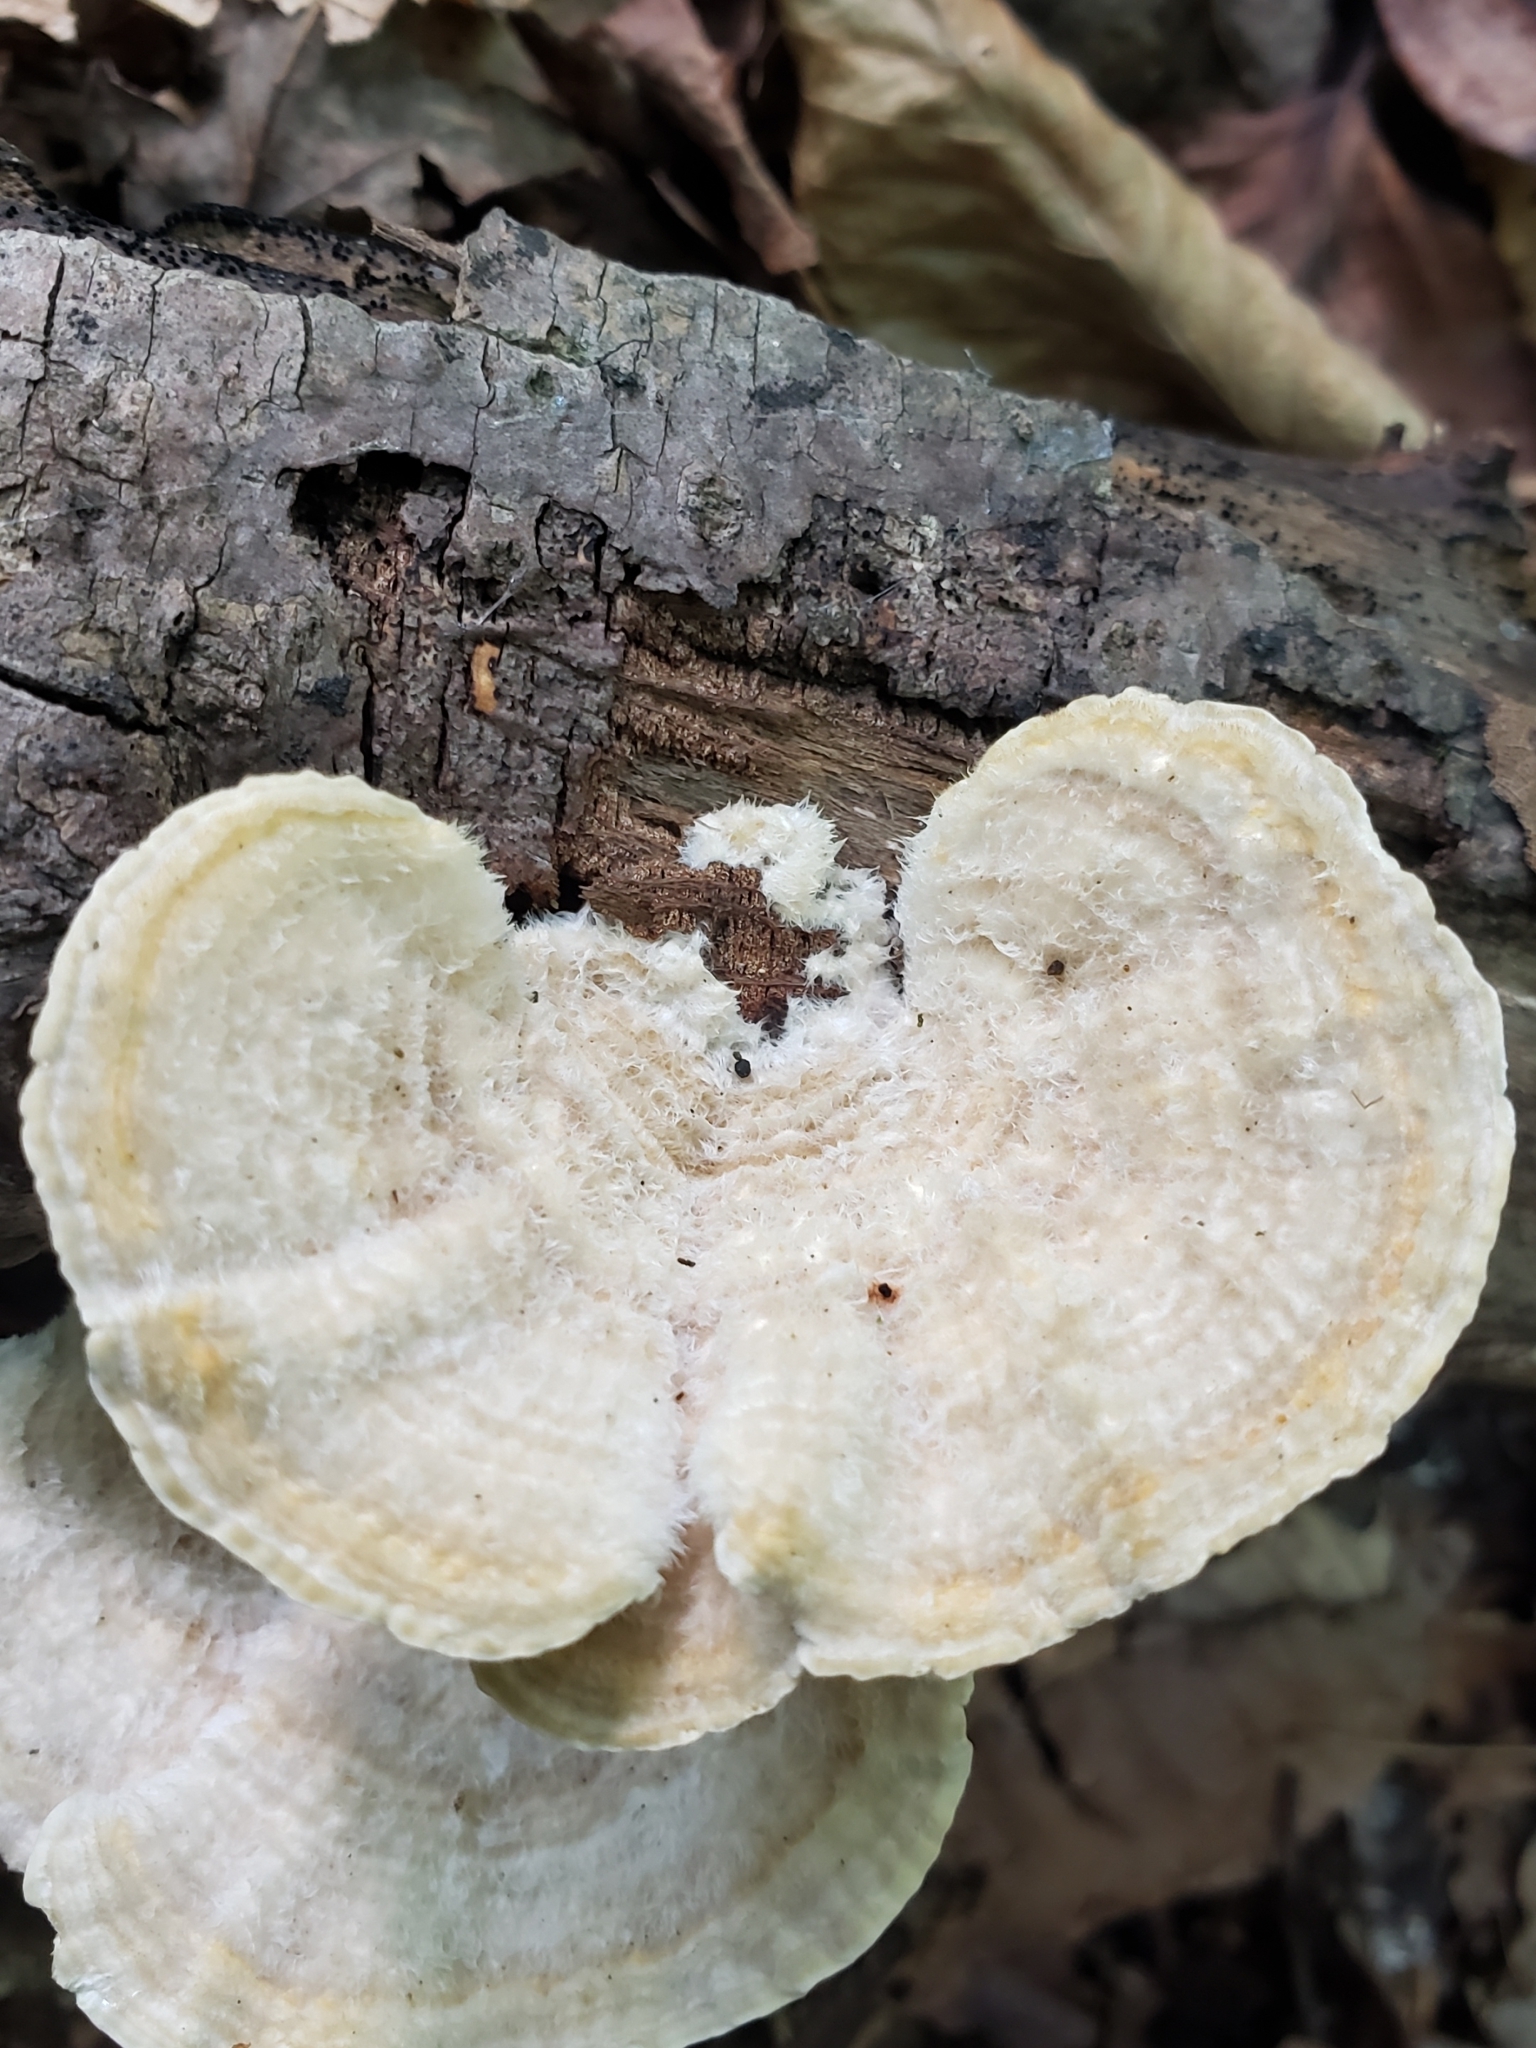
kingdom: Fungi
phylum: Basidiomycota
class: Agaricomycetes
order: Polyporales
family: Polyporaceae
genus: Lenzites
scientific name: Lenzites betulinus
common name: Birch mazegill
